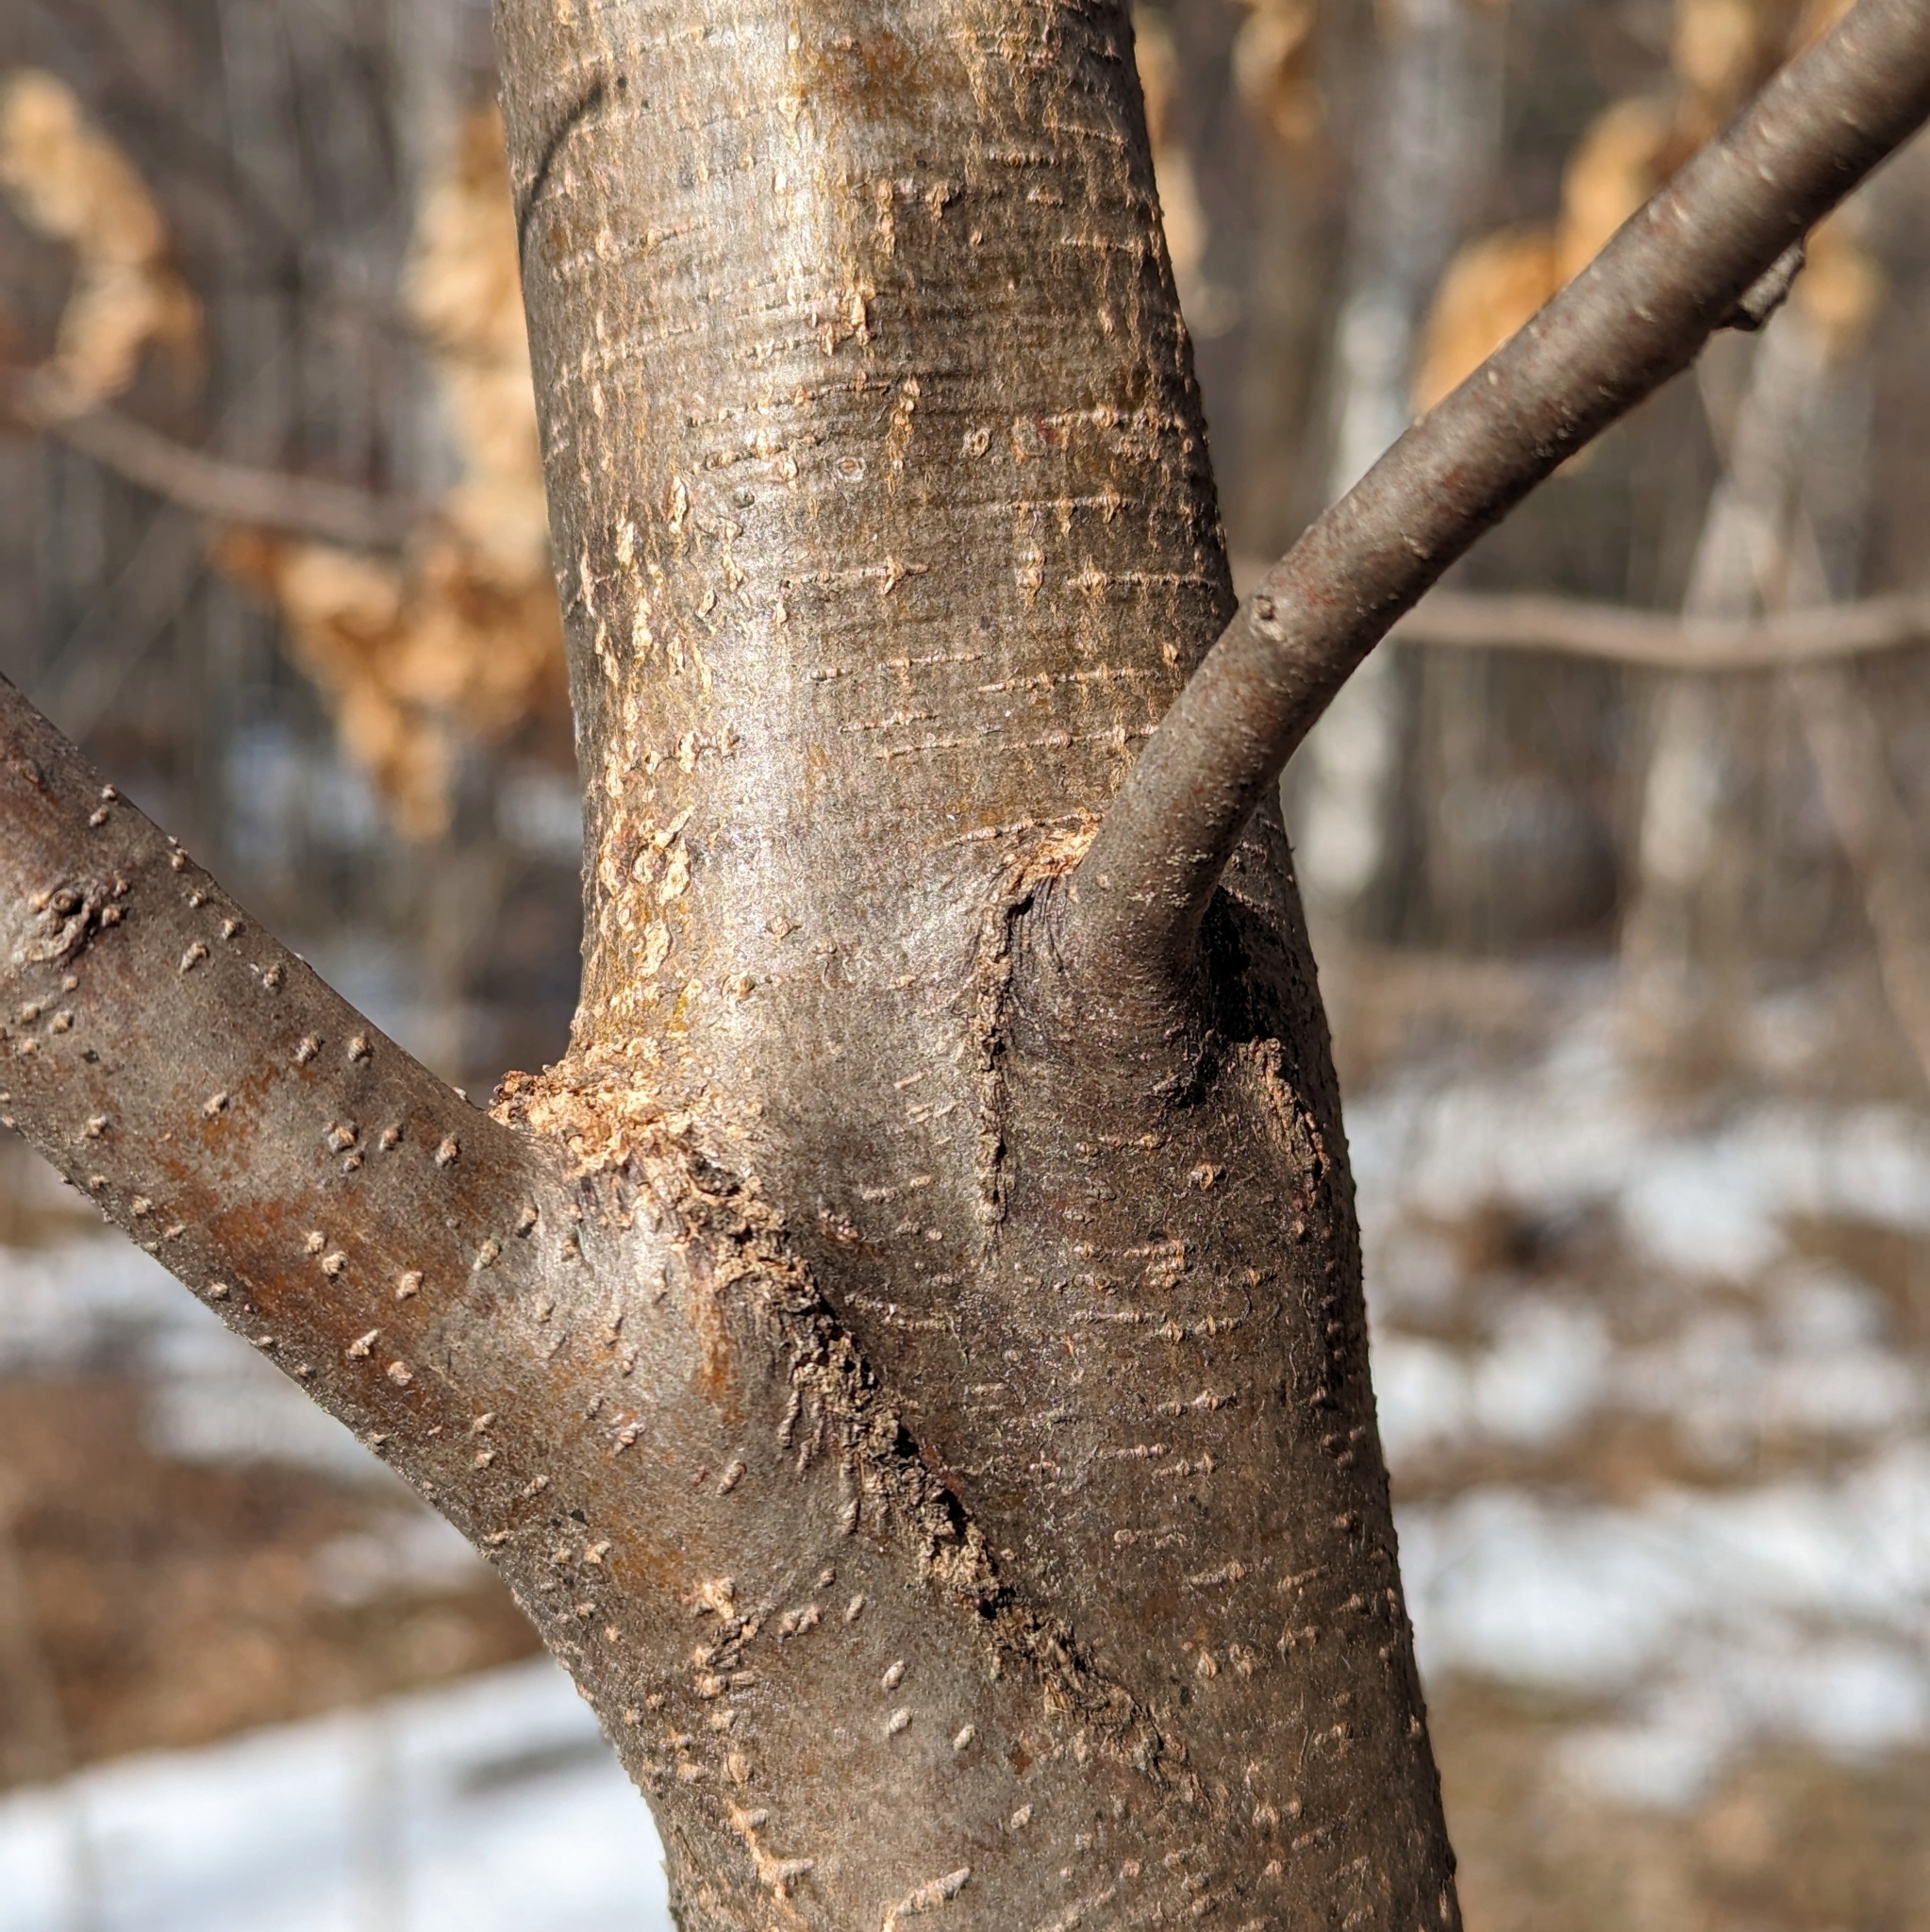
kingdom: Plantae
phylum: Tracheophyta
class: Magnoliopsida
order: Fagales
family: Betulaceae
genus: Ostrya
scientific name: Ostrya virginiana
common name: Ironwood
